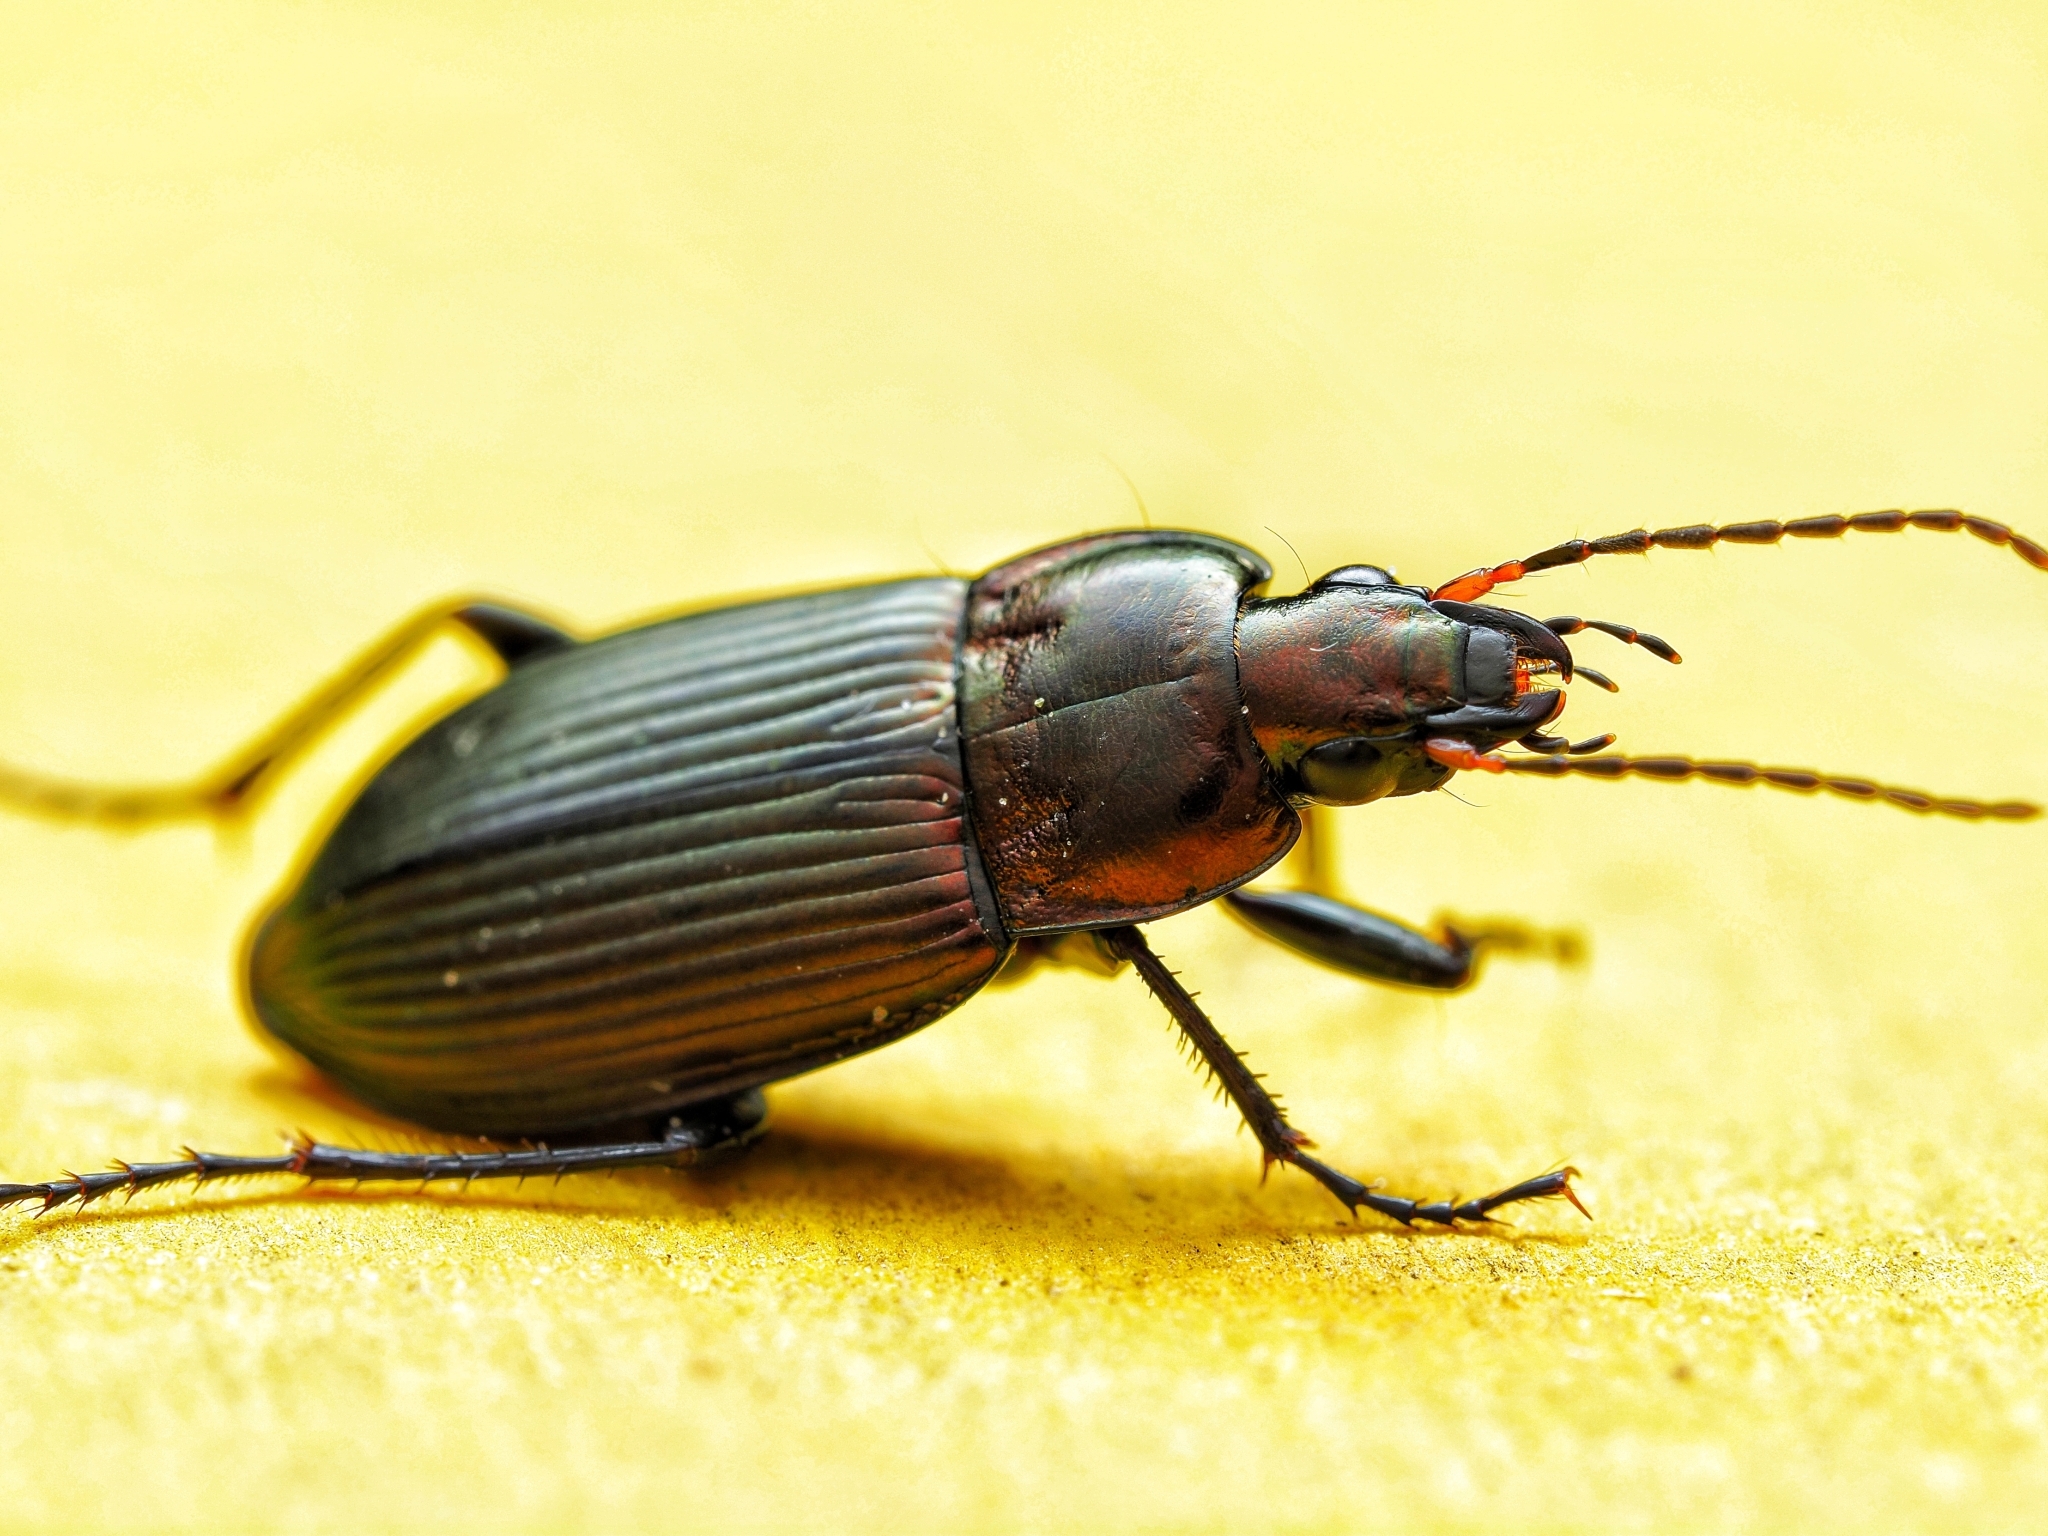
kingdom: Animalia
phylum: Arthropoda
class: Insecta
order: Coleoptera
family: Carabidae
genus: Poecilus
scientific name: Poecilus cupreus
